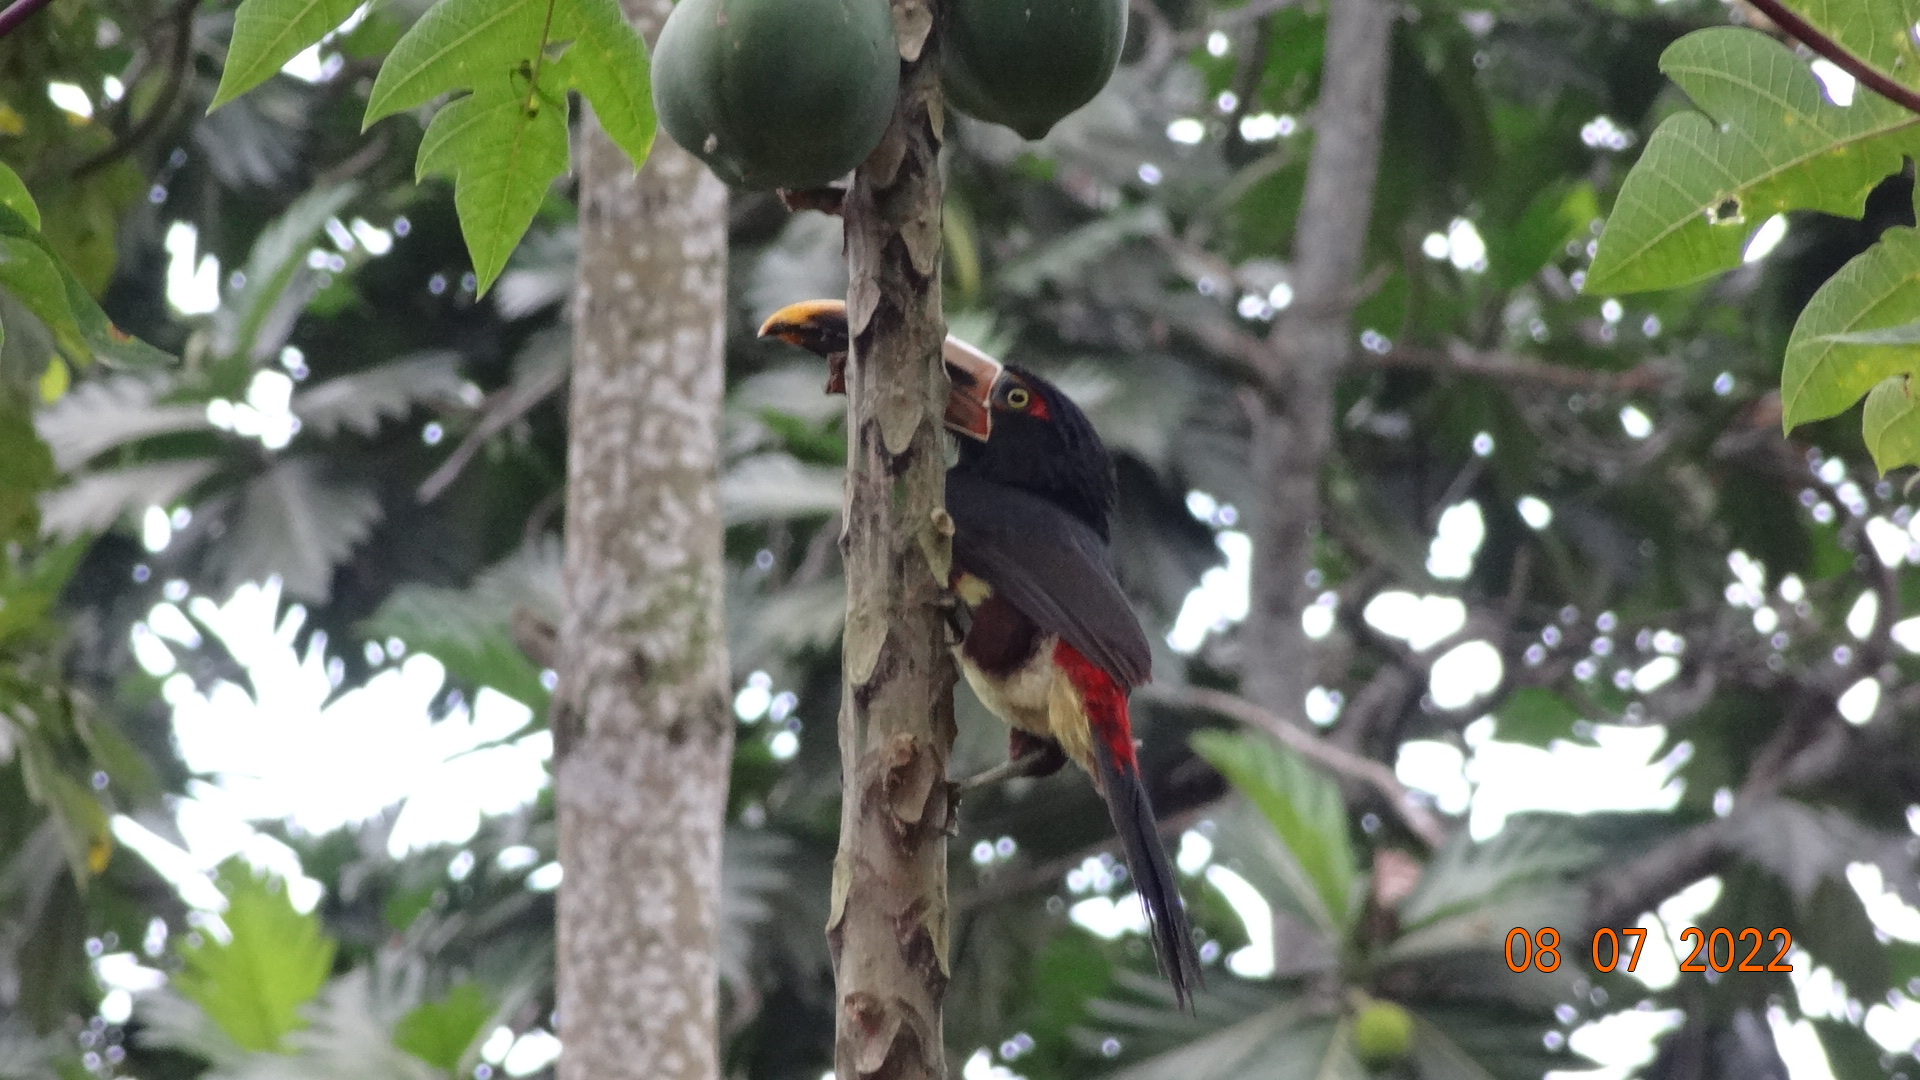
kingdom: Animalia
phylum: Chordata
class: Aves
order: Piciformes
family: Ramphastidae
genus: Pteroglossus
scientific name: Pteroglossus torquatus
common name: Collared aracari
